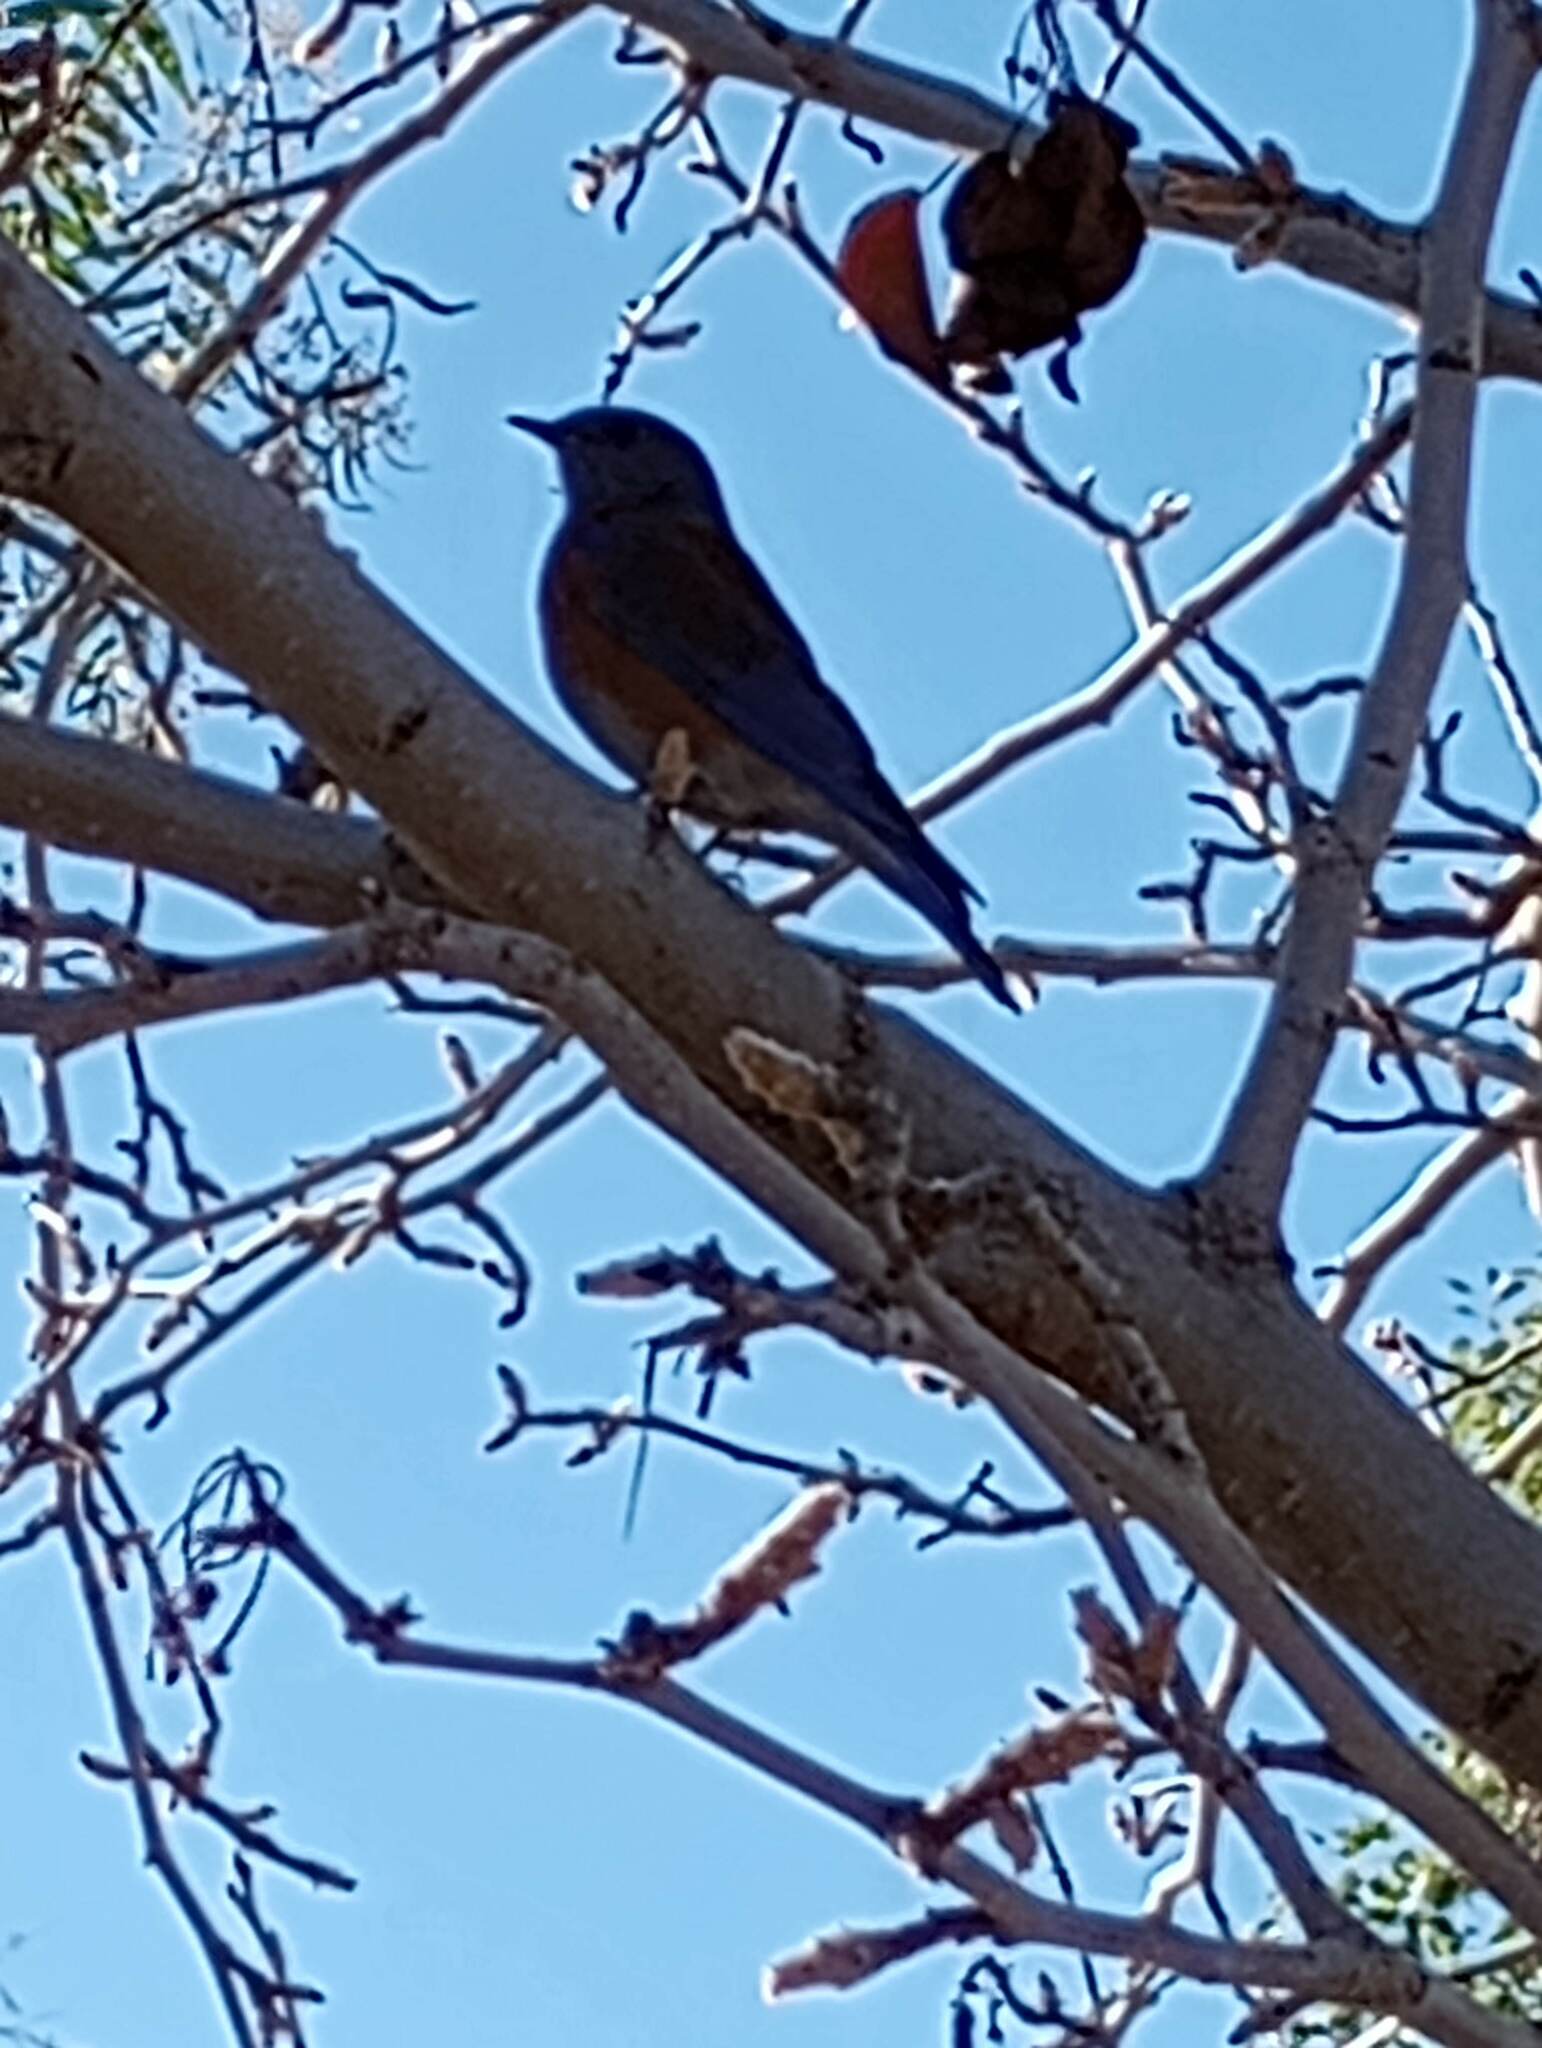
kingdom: Animalia
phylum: Chordata
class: Aves
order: Passeriformes
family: Turdidae
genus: Sialia
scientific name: Sialia mexicana
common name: Western bluebird
